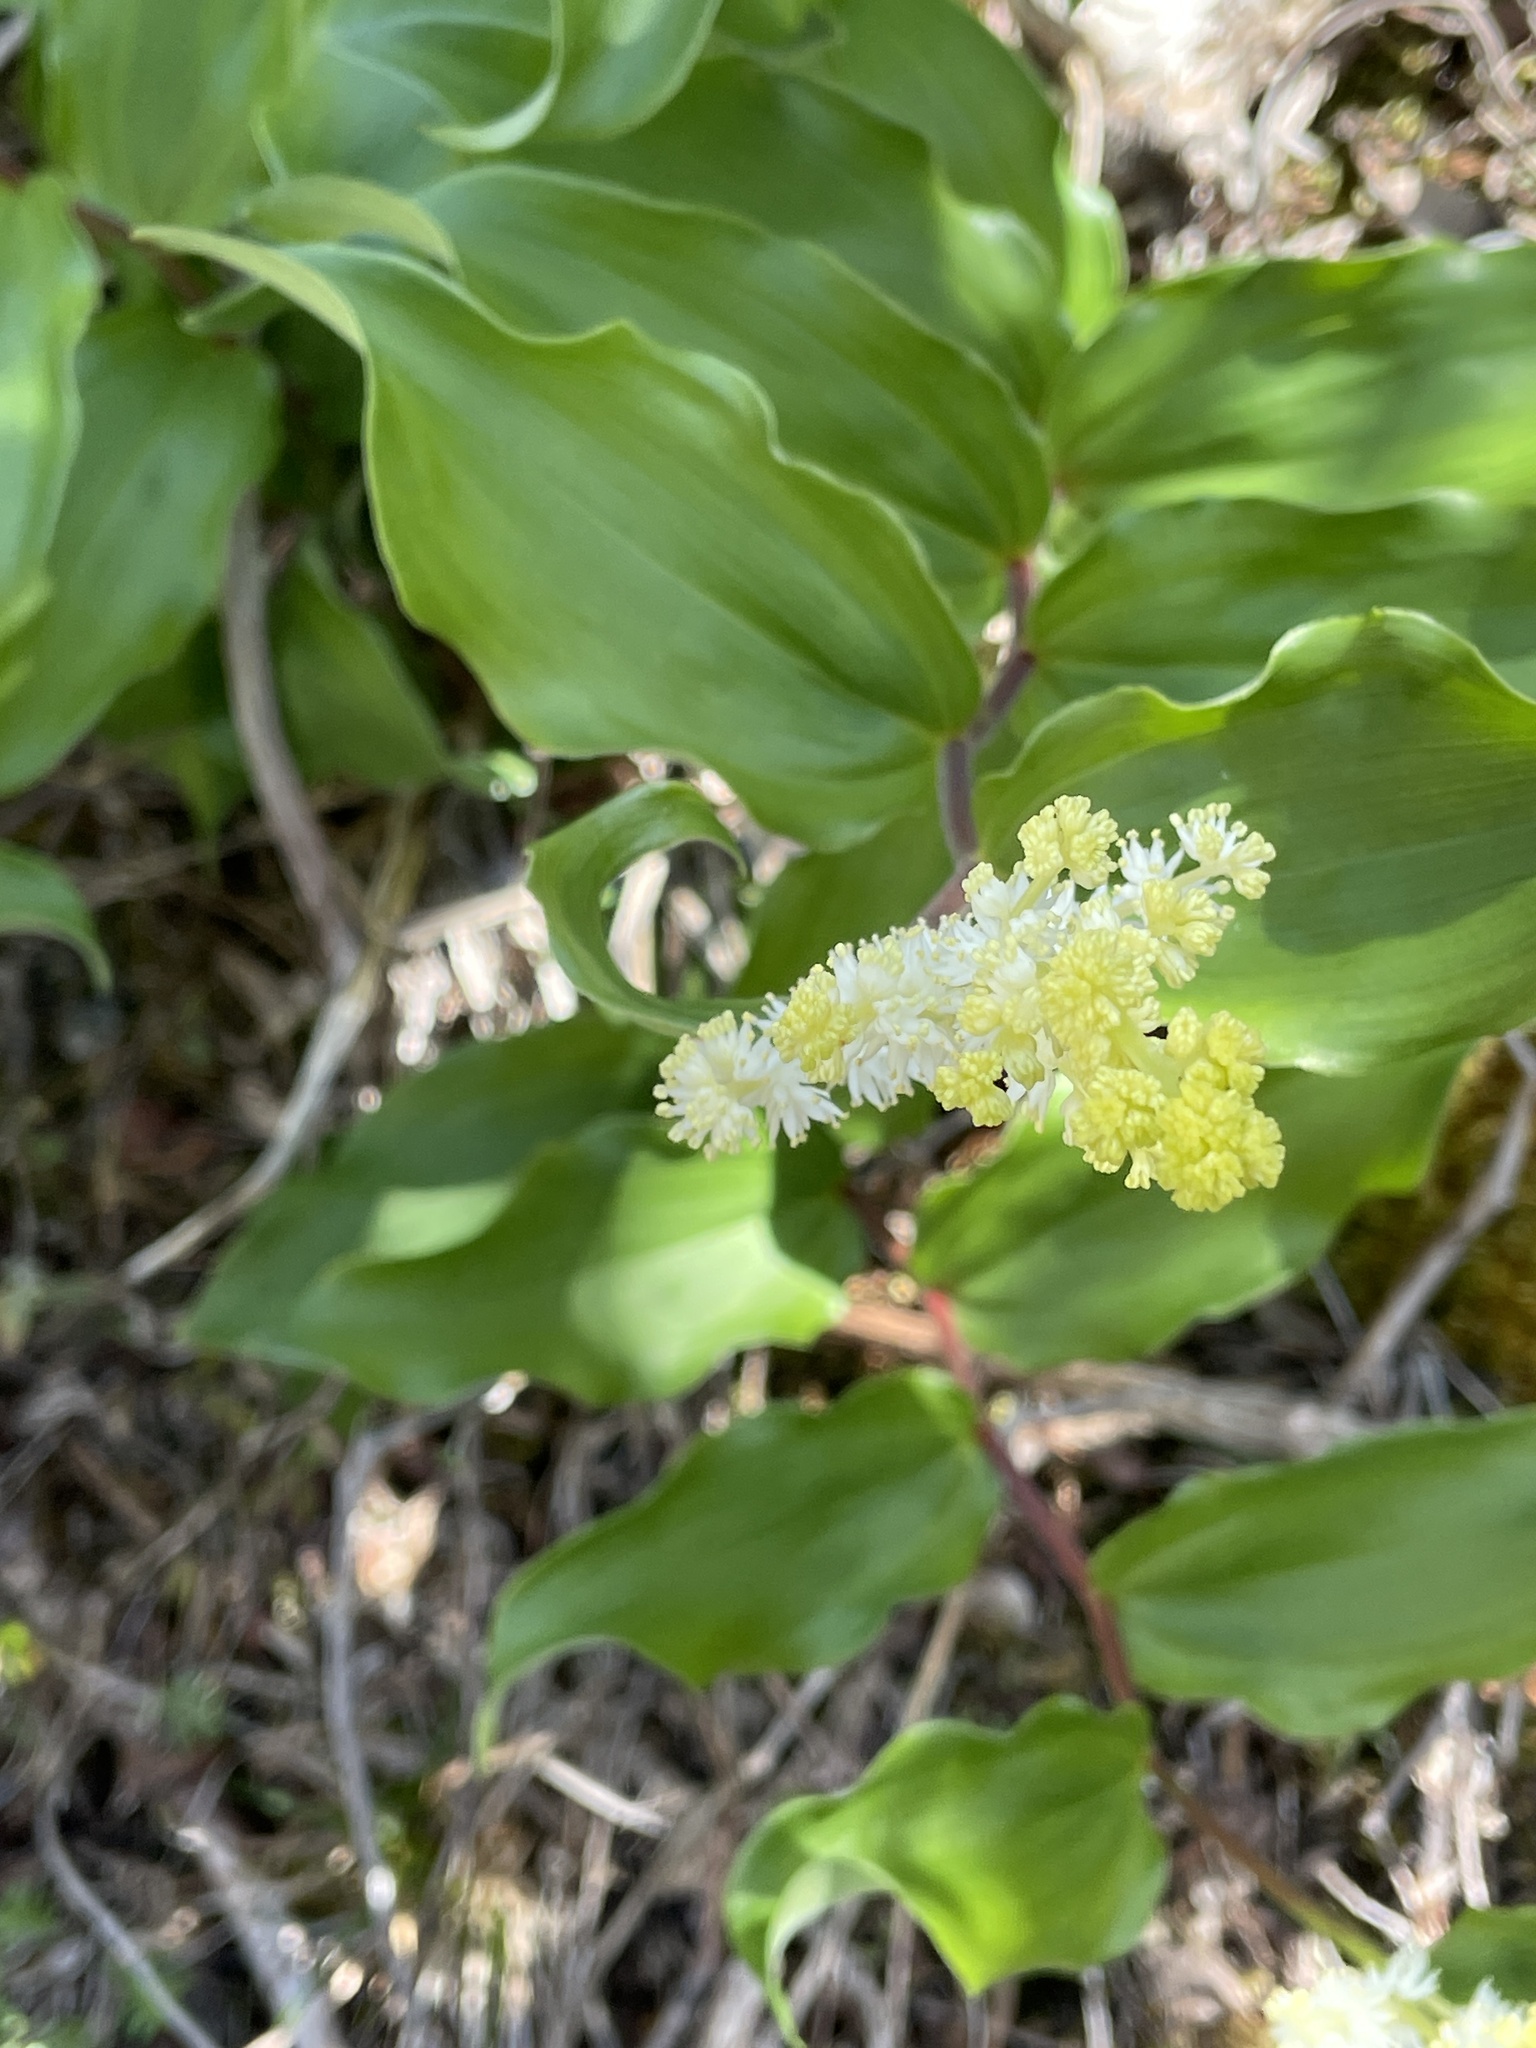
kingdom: Plantae
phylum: Tracheophyta
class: Liliopsida
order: Asparagales
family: Asparagaceae
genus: Maianthemum
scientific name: Maianthemum racemosum
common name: False spikenard
